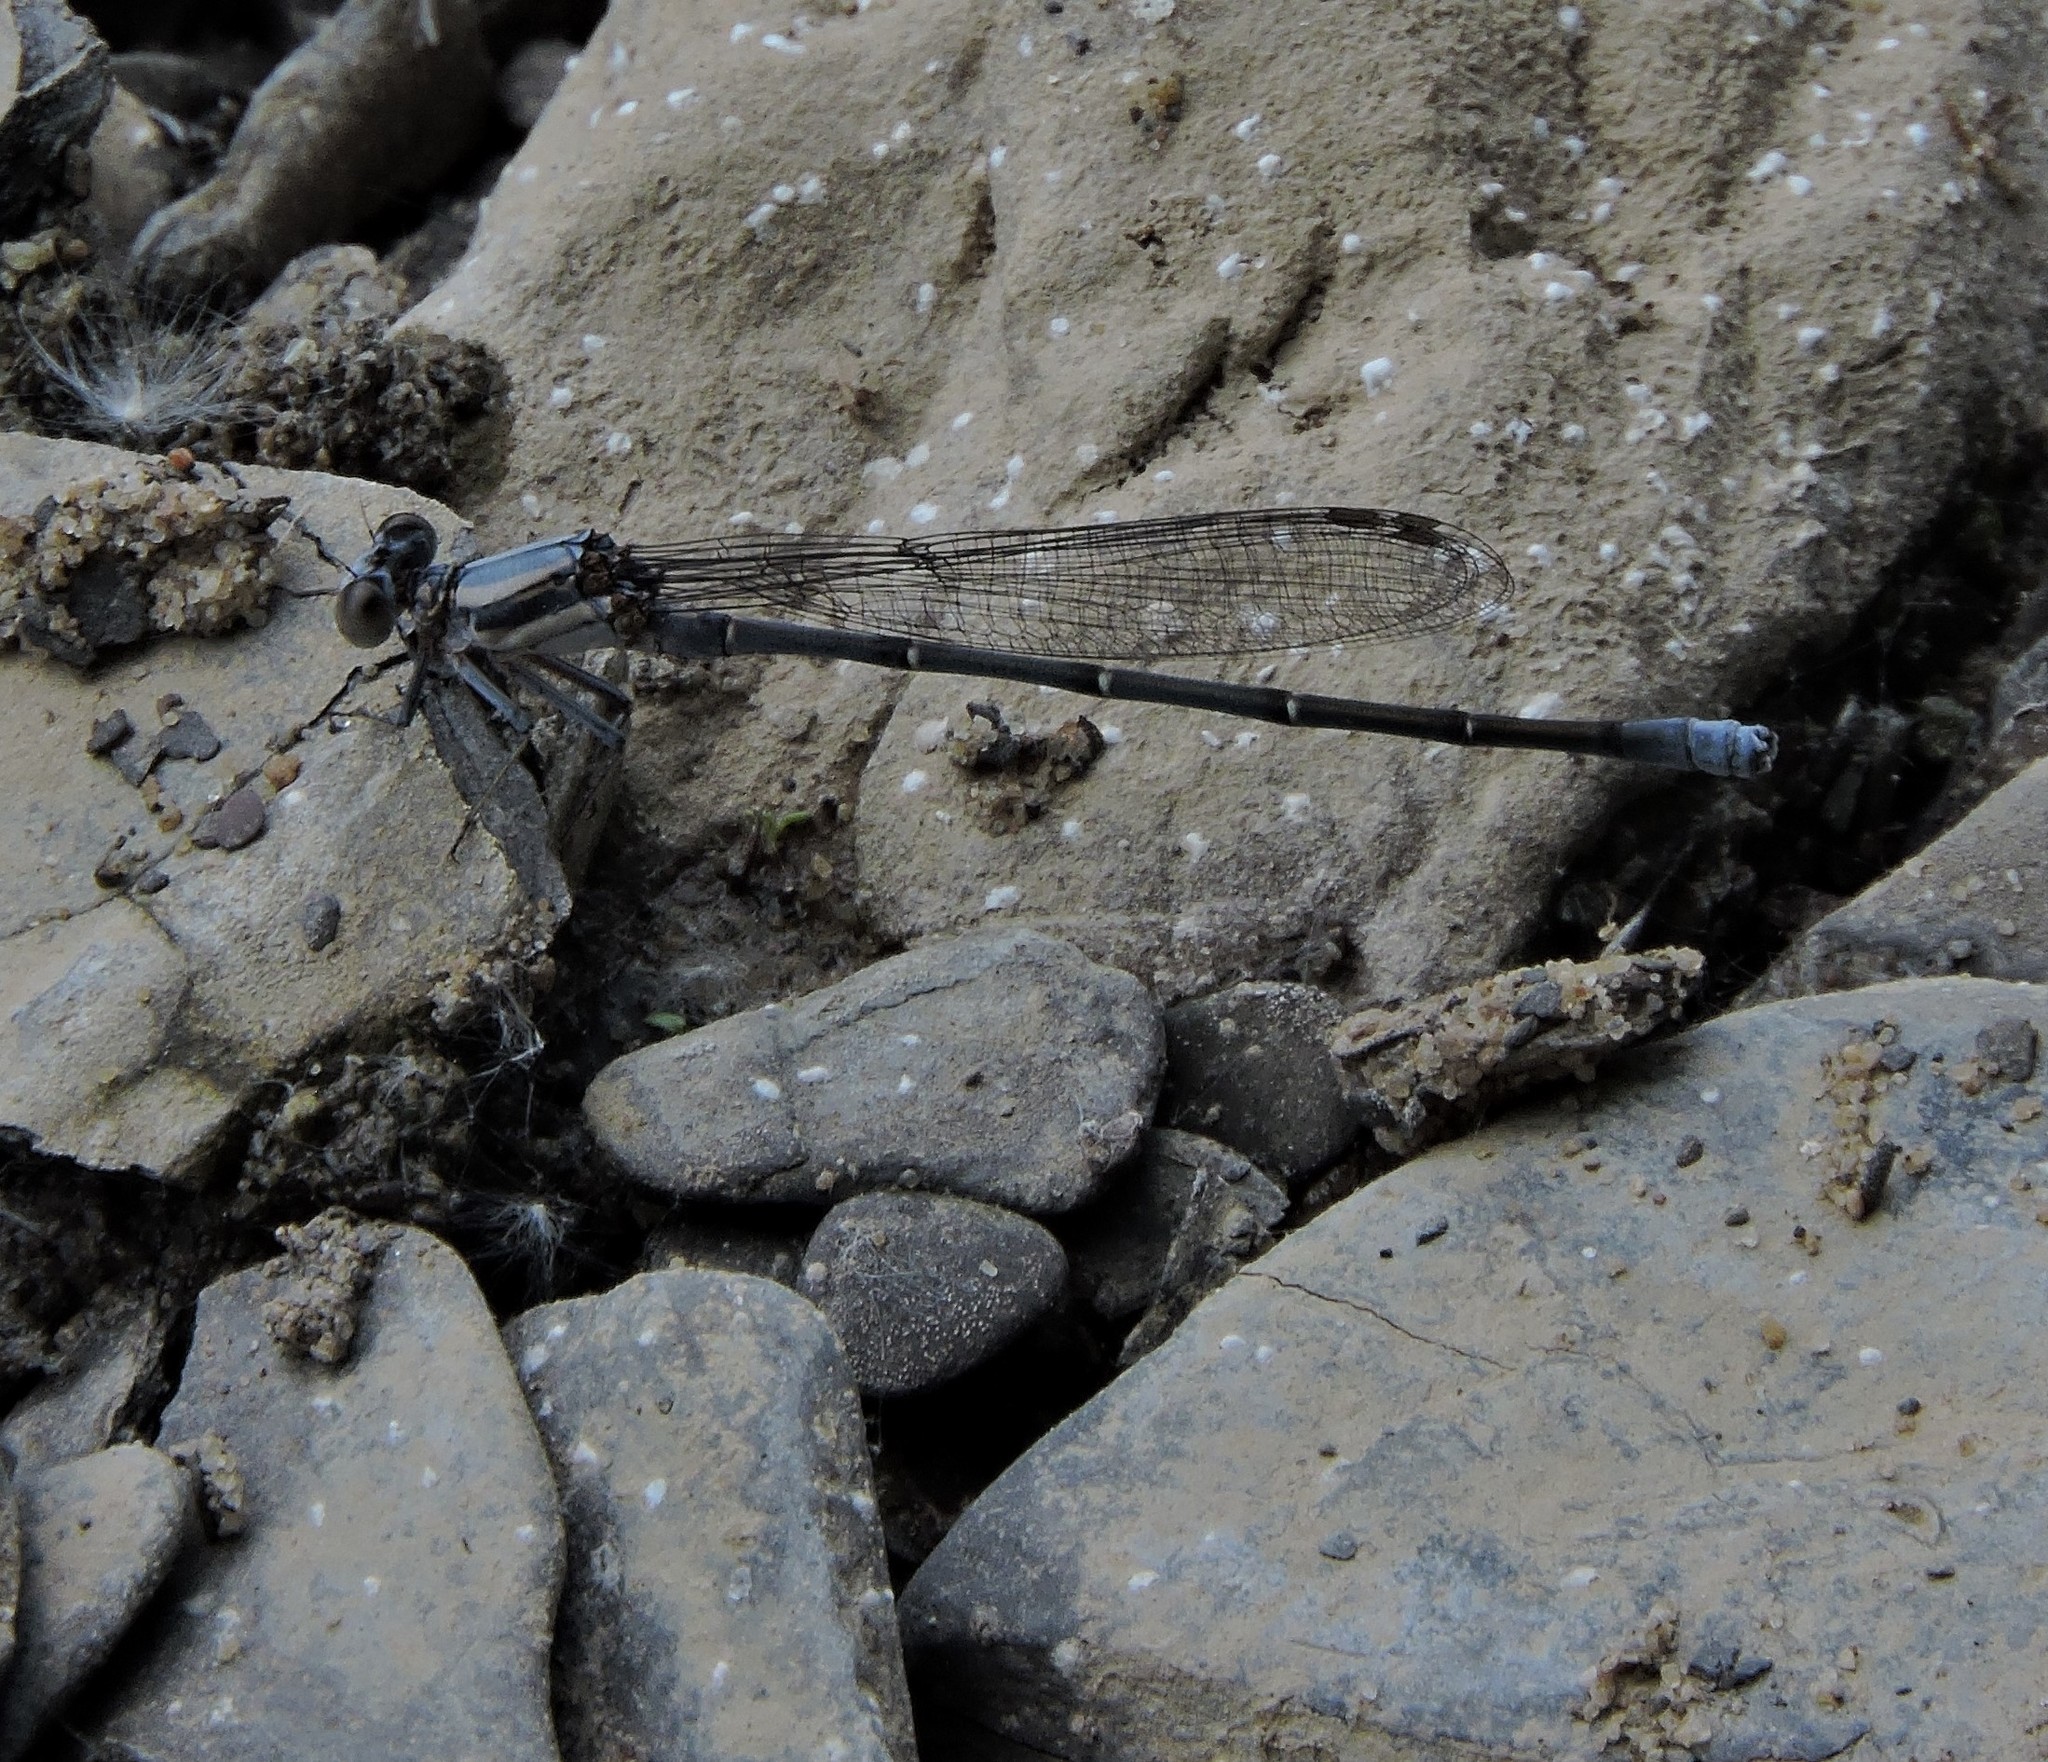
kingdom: Animalia
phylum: Arthropoda
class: Insecta
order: Odonata
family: Coenagrionidae
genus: Argia
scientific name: Argia moesta
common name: Powdered dancer
